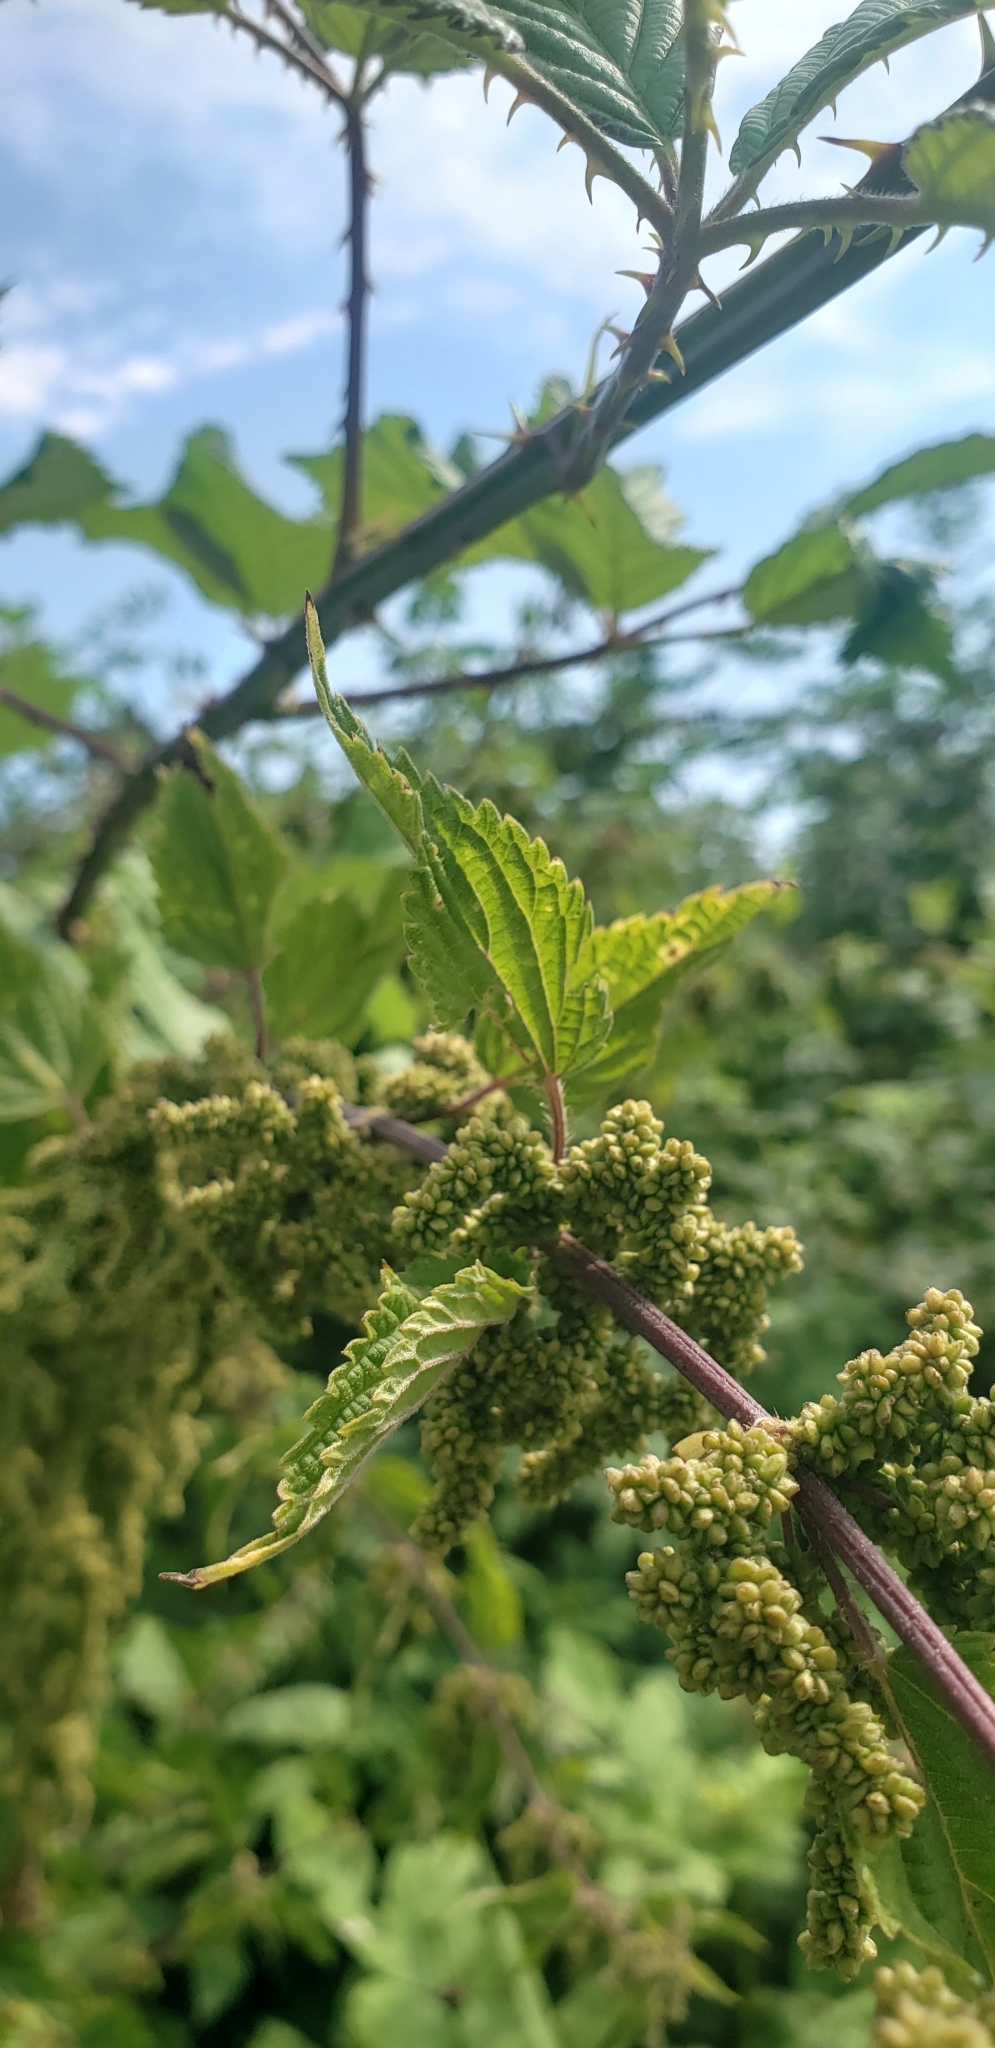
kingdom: Plantae
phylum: Tracheophyta
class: Magnoliopsida
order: Rosales
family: Urticaceae
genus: Urtica
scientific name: Urtica dioica
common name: Common nettle
